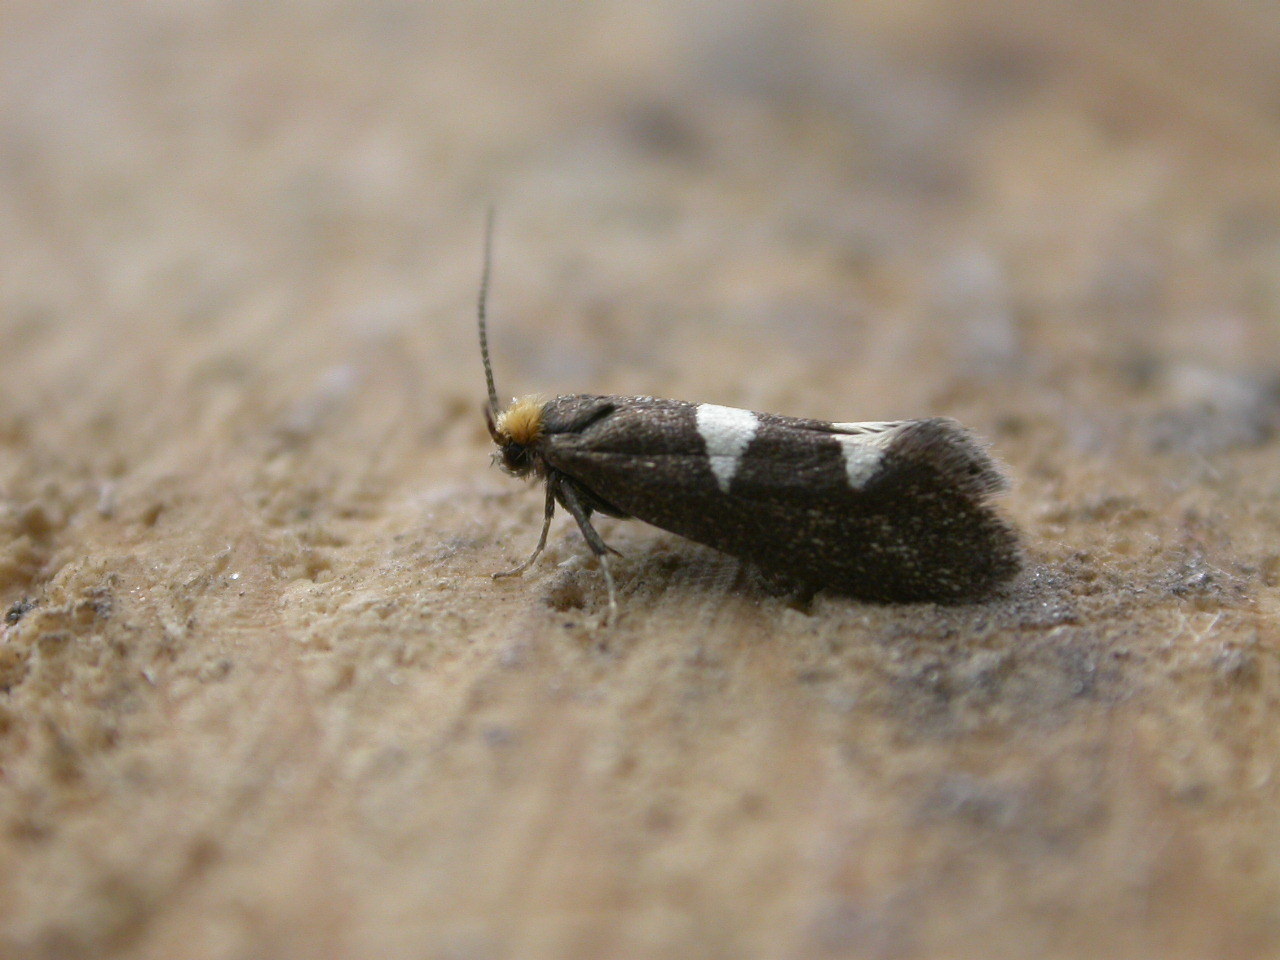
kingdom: Animalia
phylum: Arthropoda
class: Insecta
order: Lepidoptera
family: Incurvariidae
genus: Incurvaria
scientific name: Incurvaria masculella
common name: Feathered leaf-cutter
